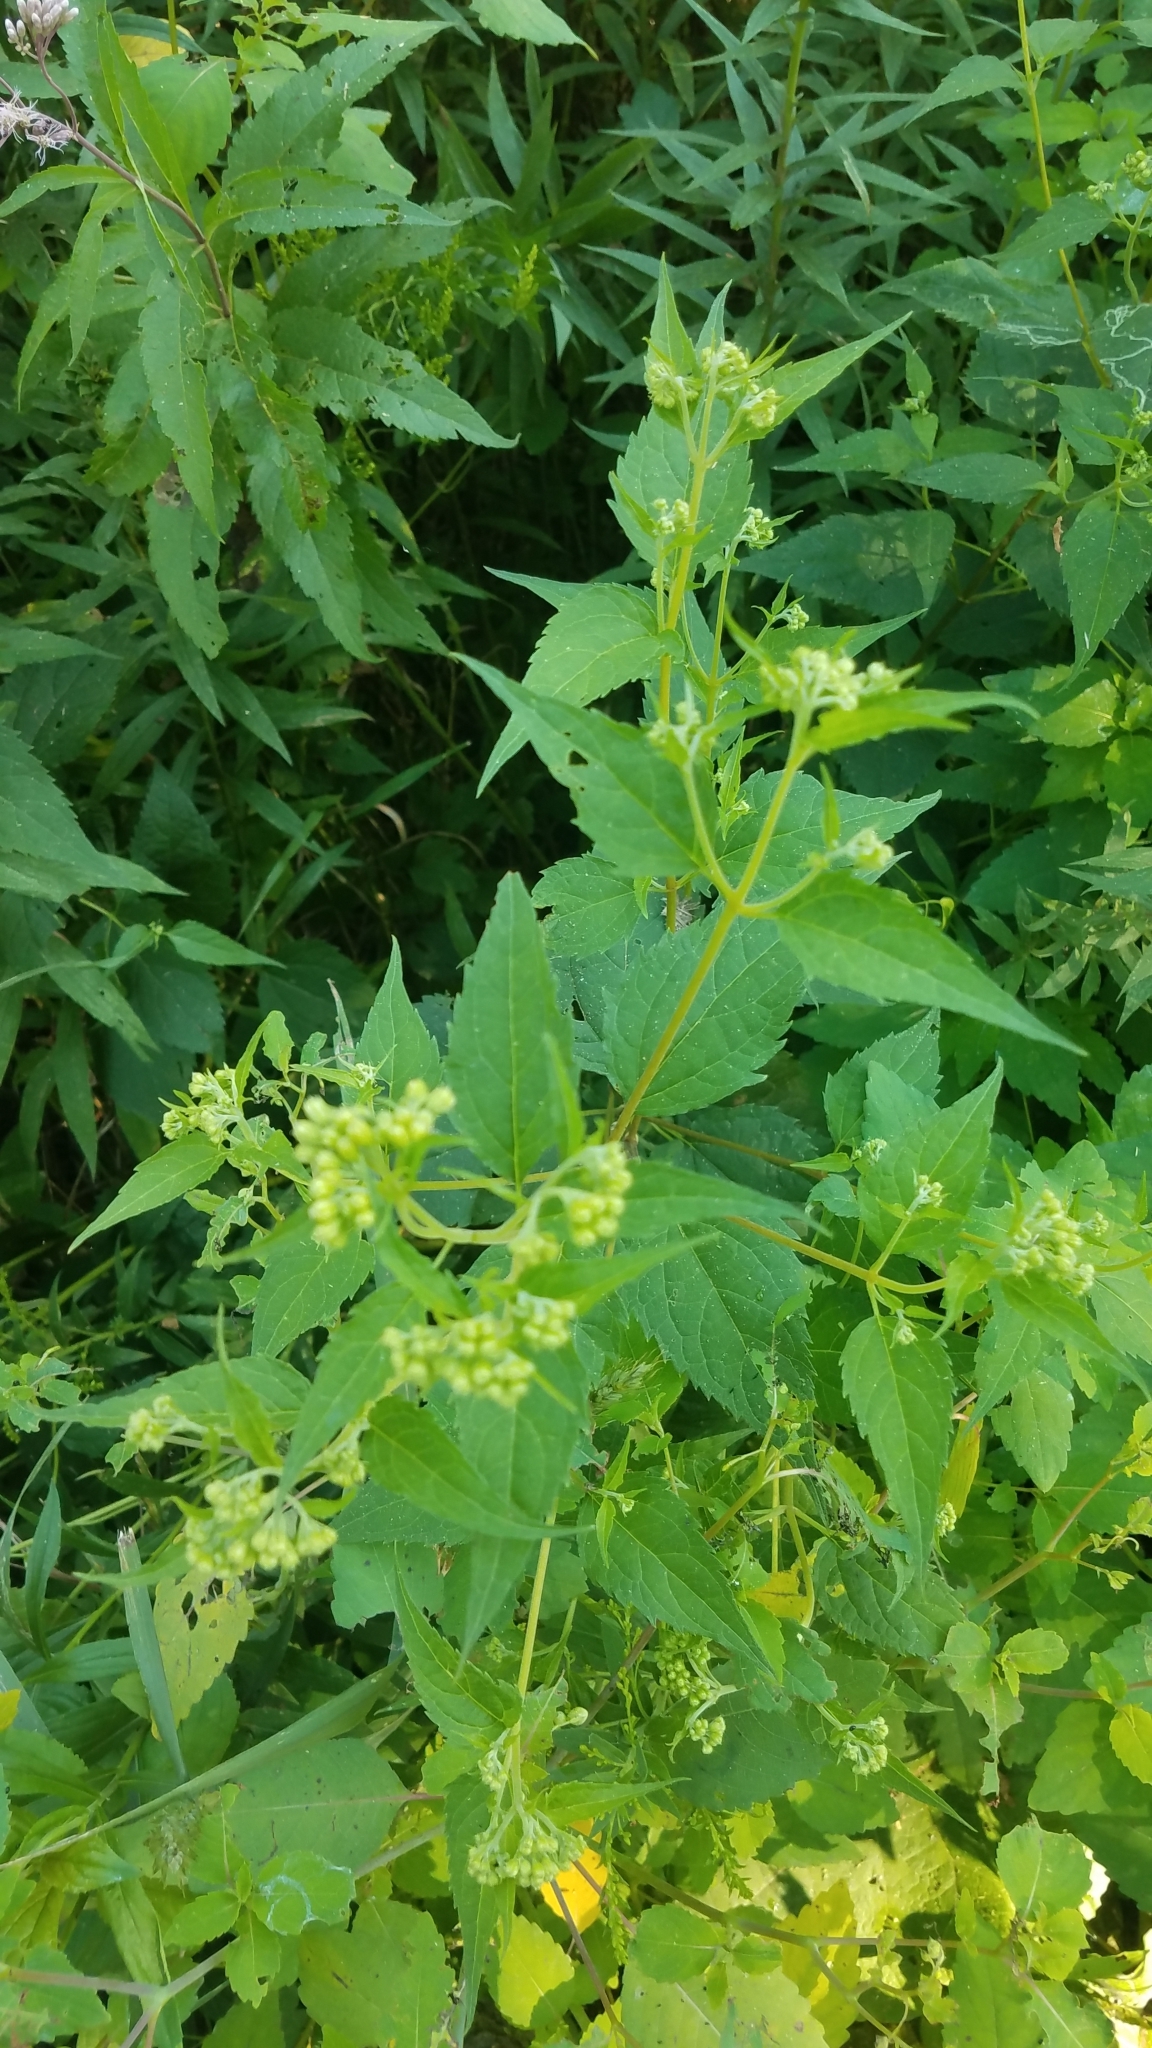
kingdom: Plantae
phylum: Tracheophyta
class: Magnoliopsida
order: Asterales
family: Asteraceae
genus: Ageratina
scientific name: Ageratina altissima
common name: White snakeroot
